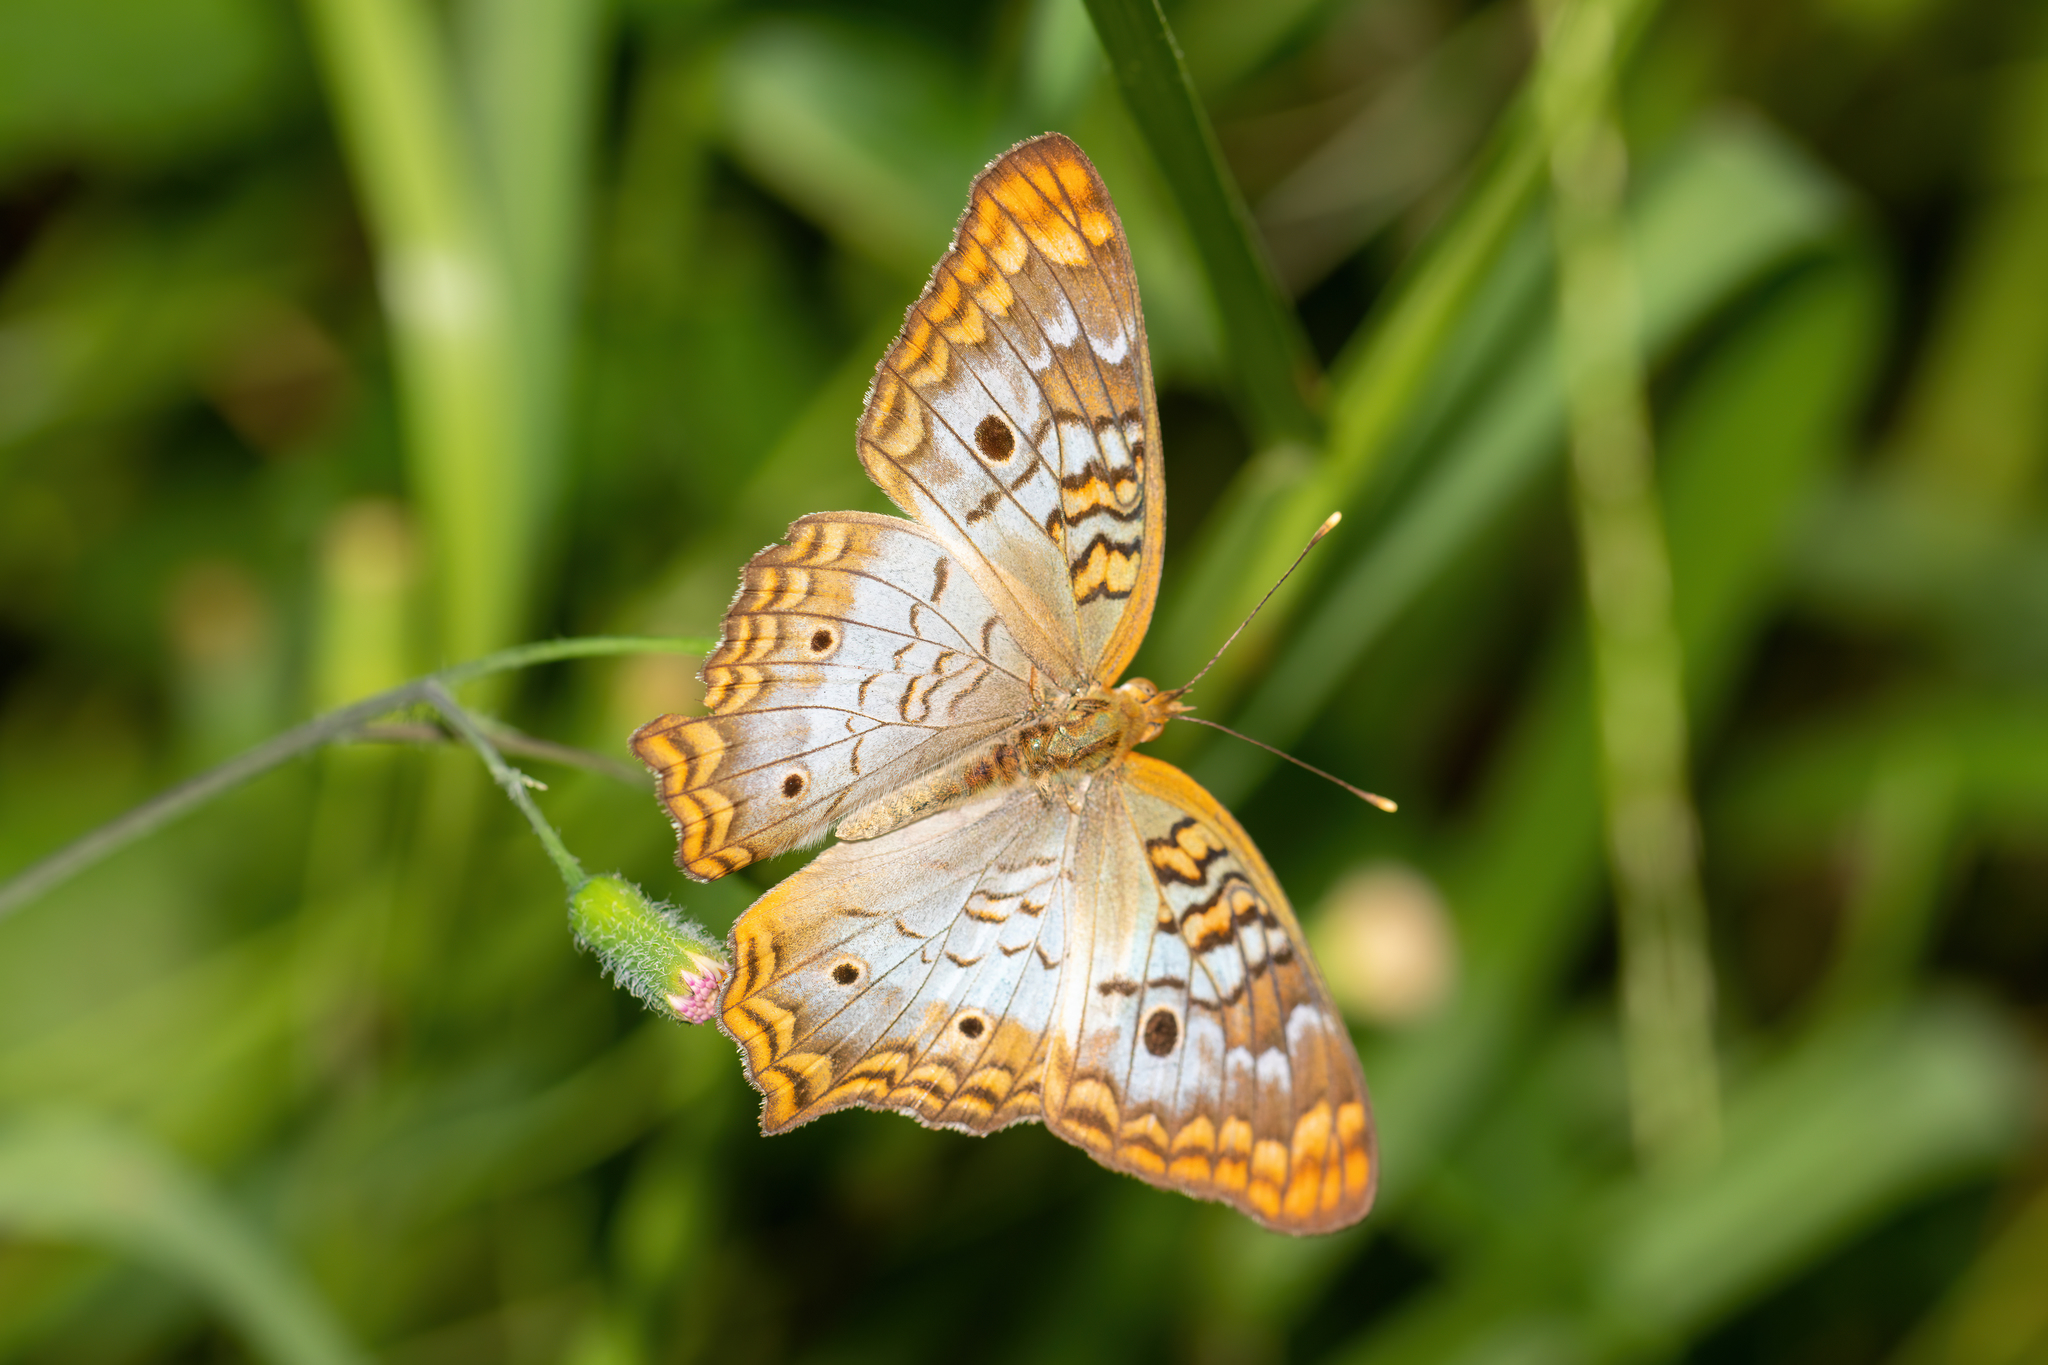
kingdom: Animalia
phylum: Arthropoda
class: Insecta
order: Lepidoptera
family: Nymphalidae
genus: Anartia
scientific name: Anartia jatrophae
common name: White peacock
